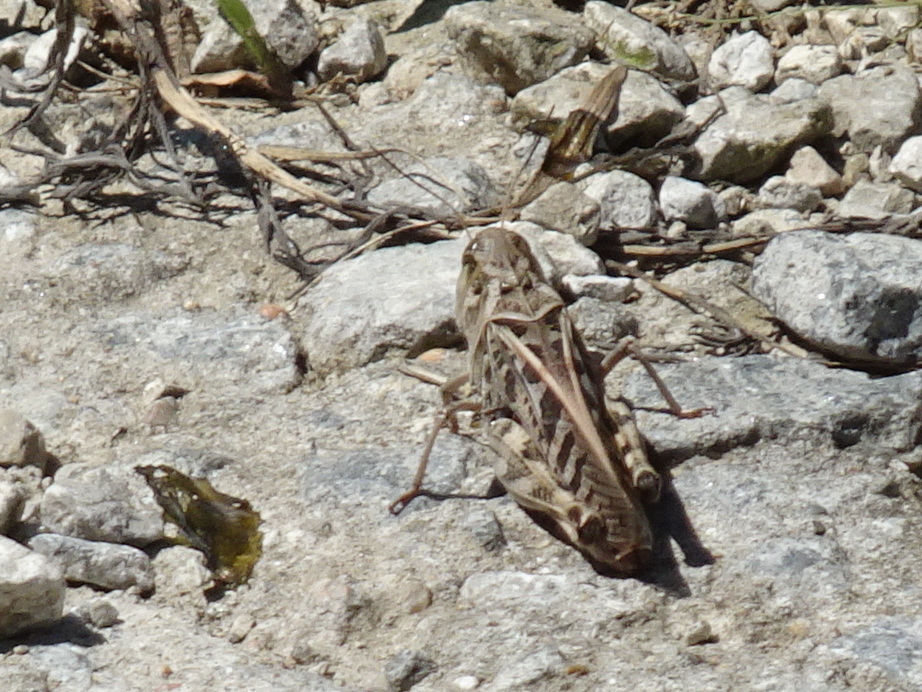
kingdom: Animalia
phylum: Arthropoda
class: Insecta
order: Orthoptera
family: Acrididae
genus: Hippiscus
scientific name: Hippiscus ocelote
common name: Wrinkled grasshopper
